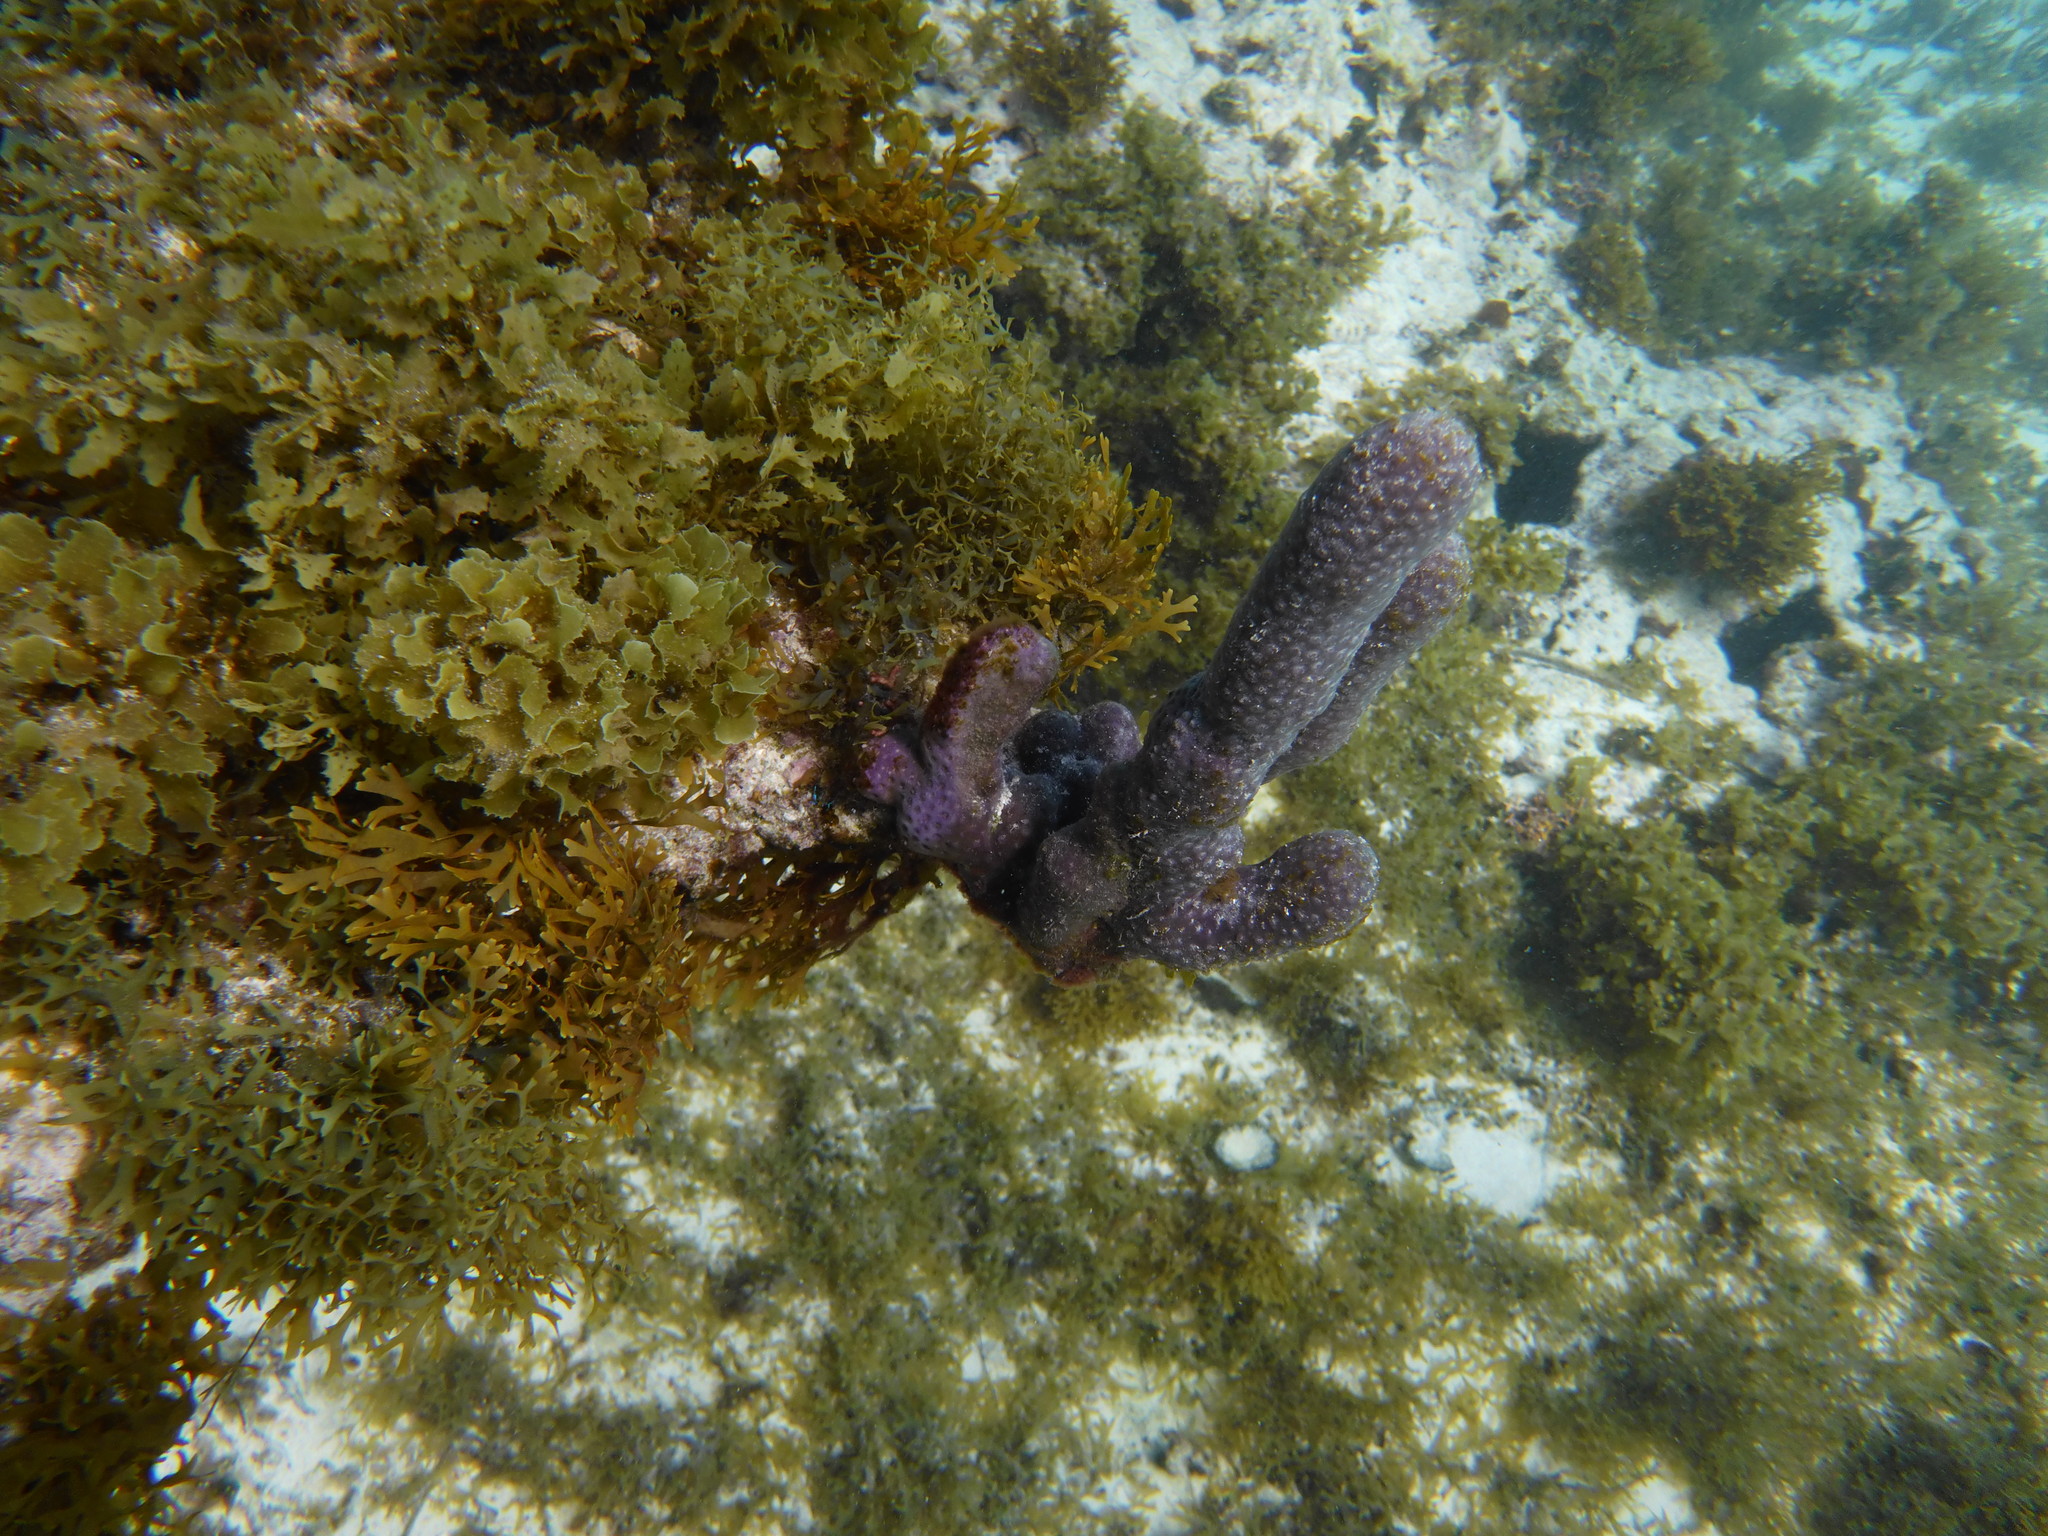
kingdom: Animalia
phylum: Cnidaria
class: Anthozoa
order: Scleralcyonacea
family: Briareidae
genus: Briareum
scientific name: Briareum asbestinum
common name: Corky sea finger
